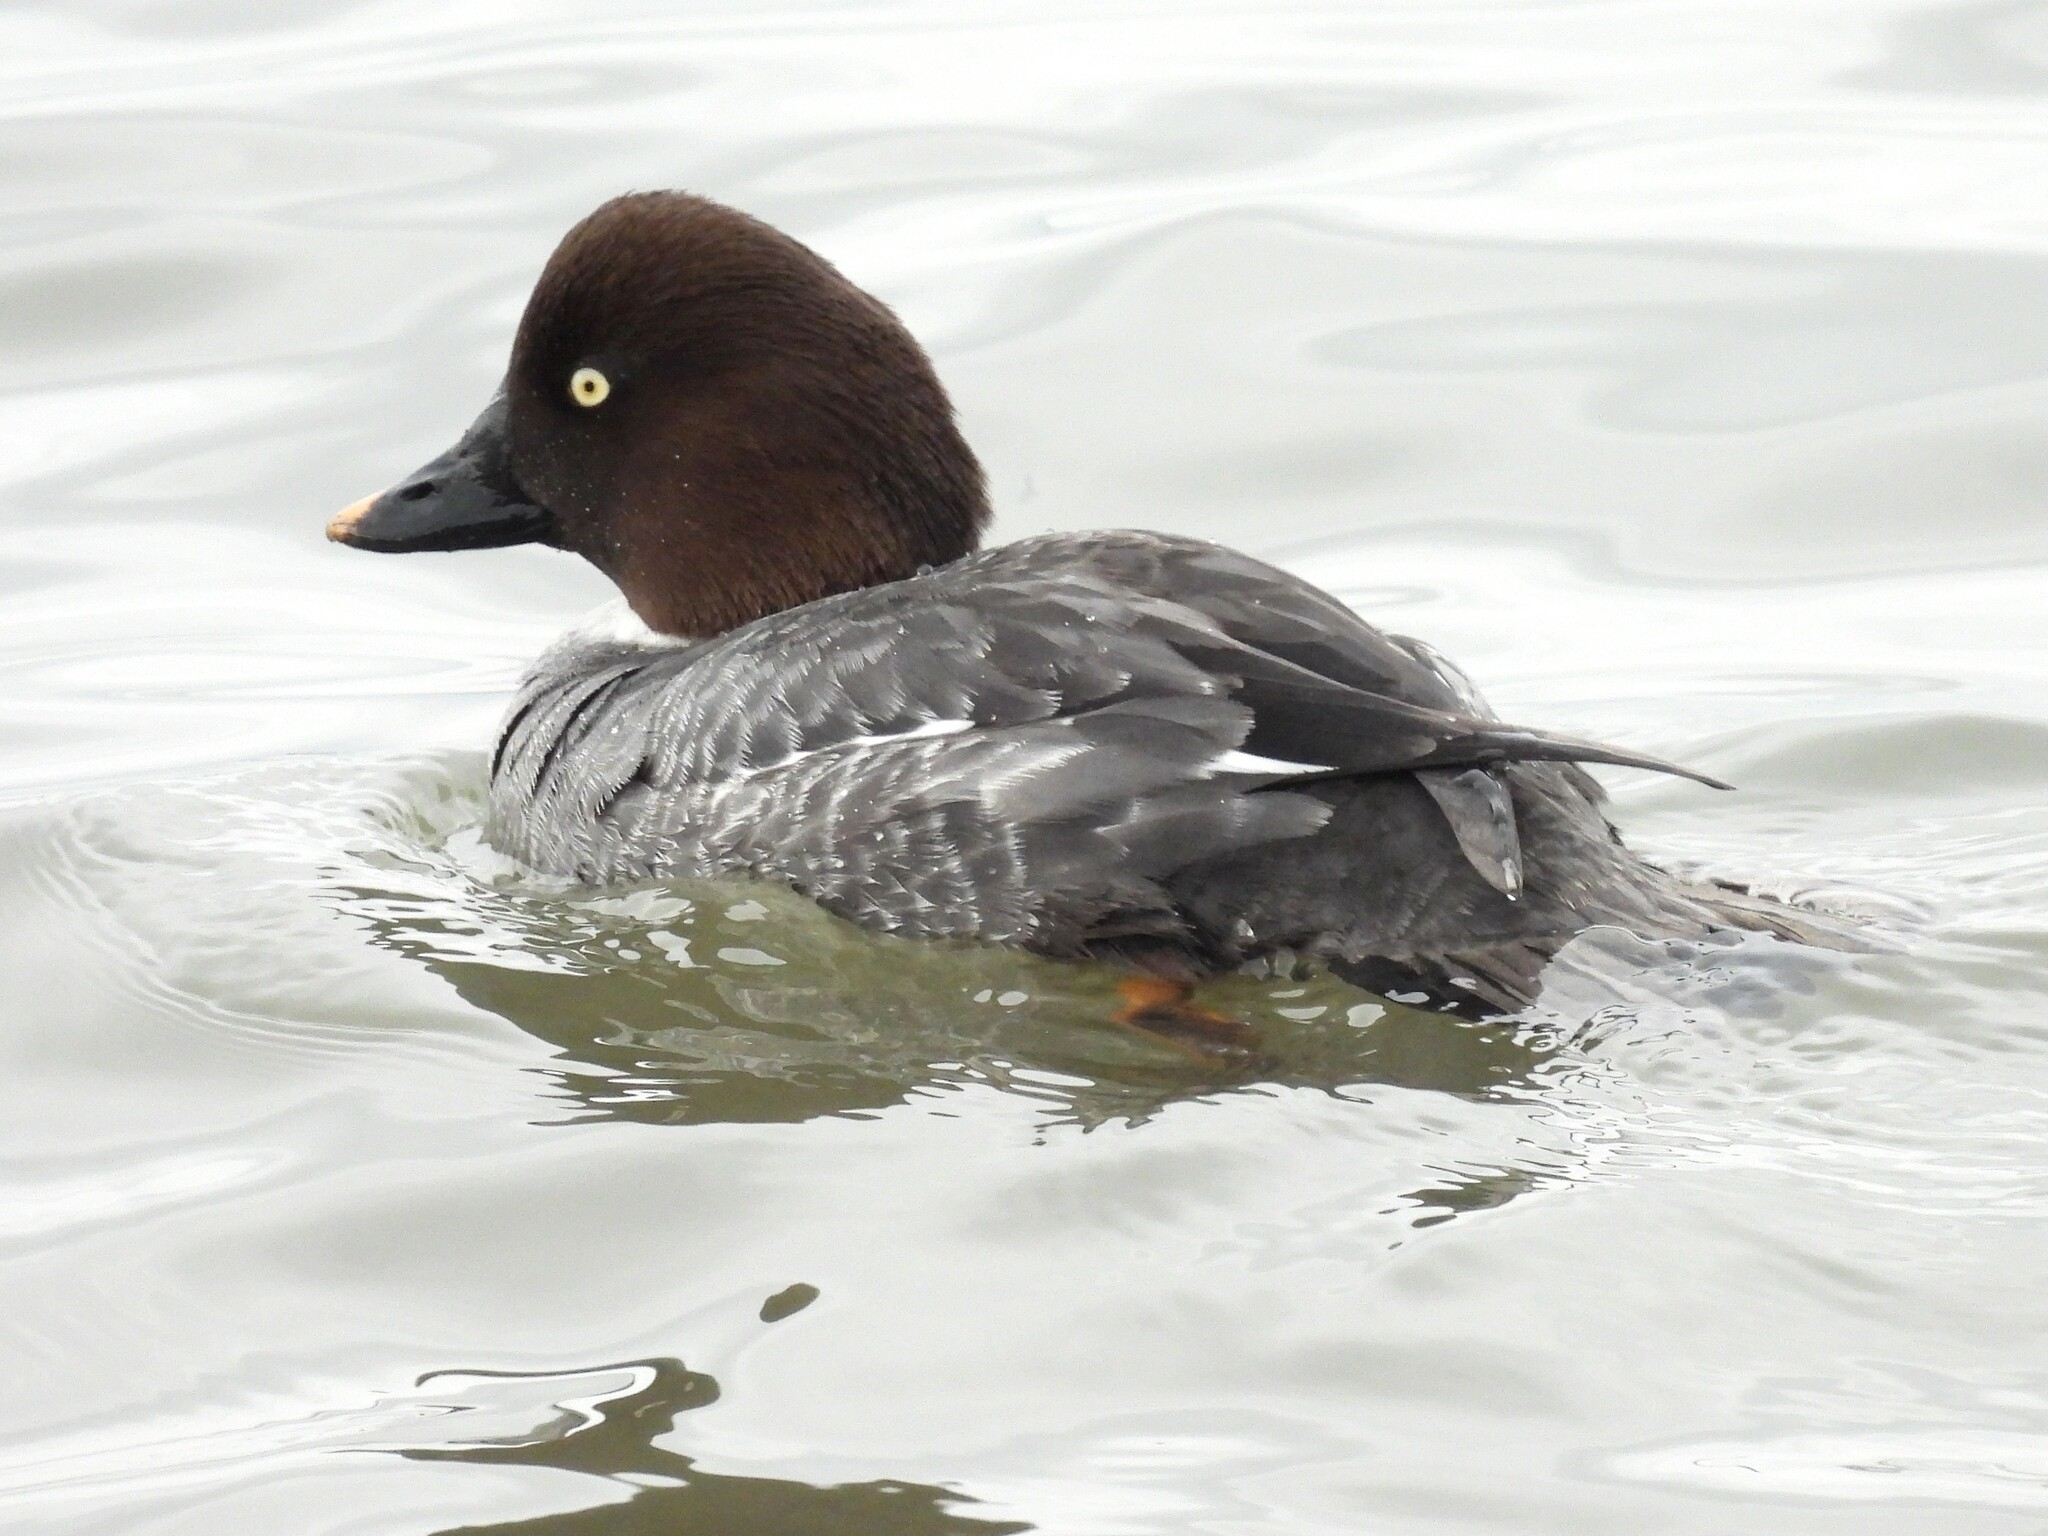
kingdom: Animalia
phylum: Chordata
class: Aves
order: Anseriformes
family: Anatidae
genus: Bucephala
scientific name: Bucephala clangula
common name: Common goldeneye
